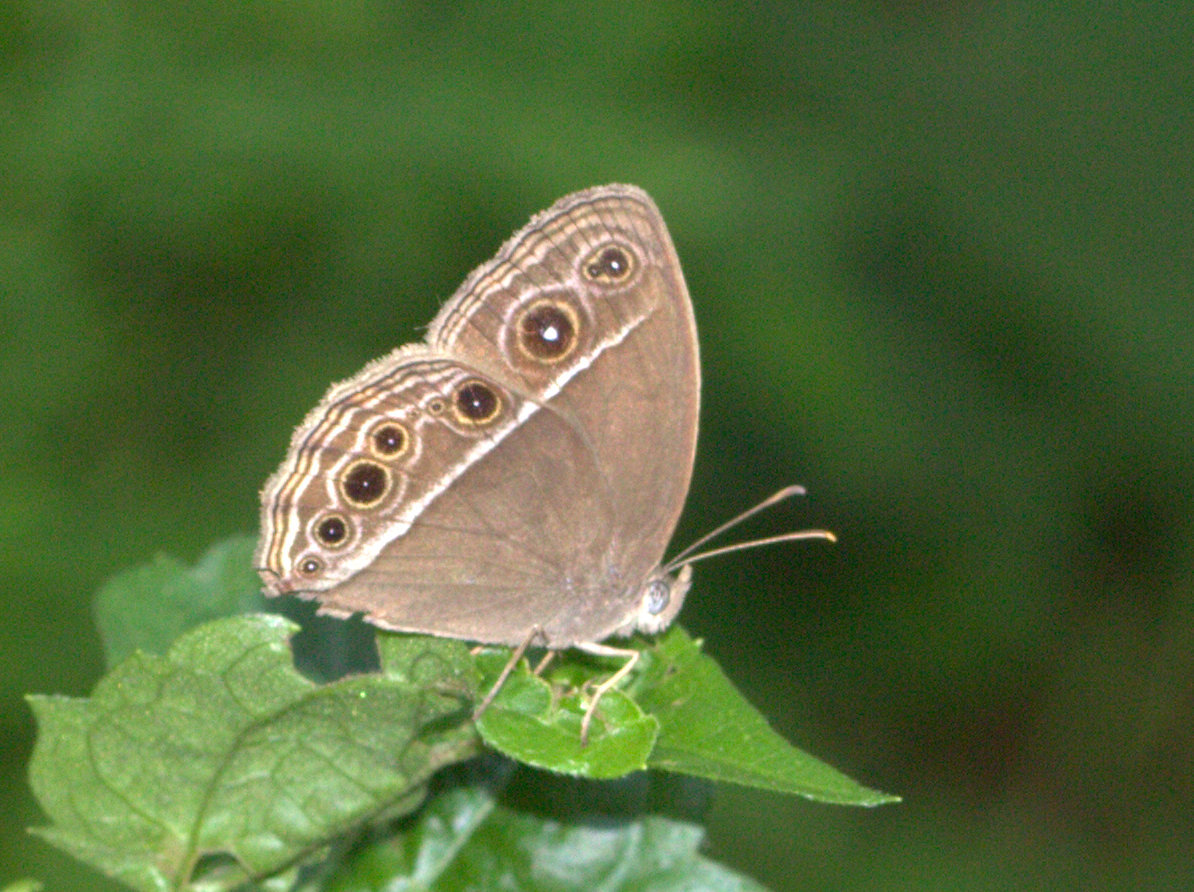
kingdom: Animalia
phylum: Arthropoda
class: Insecta
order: Lepidoptera
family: Nymphalidae
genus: Mycalesis
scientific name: Mycalesis mineus
